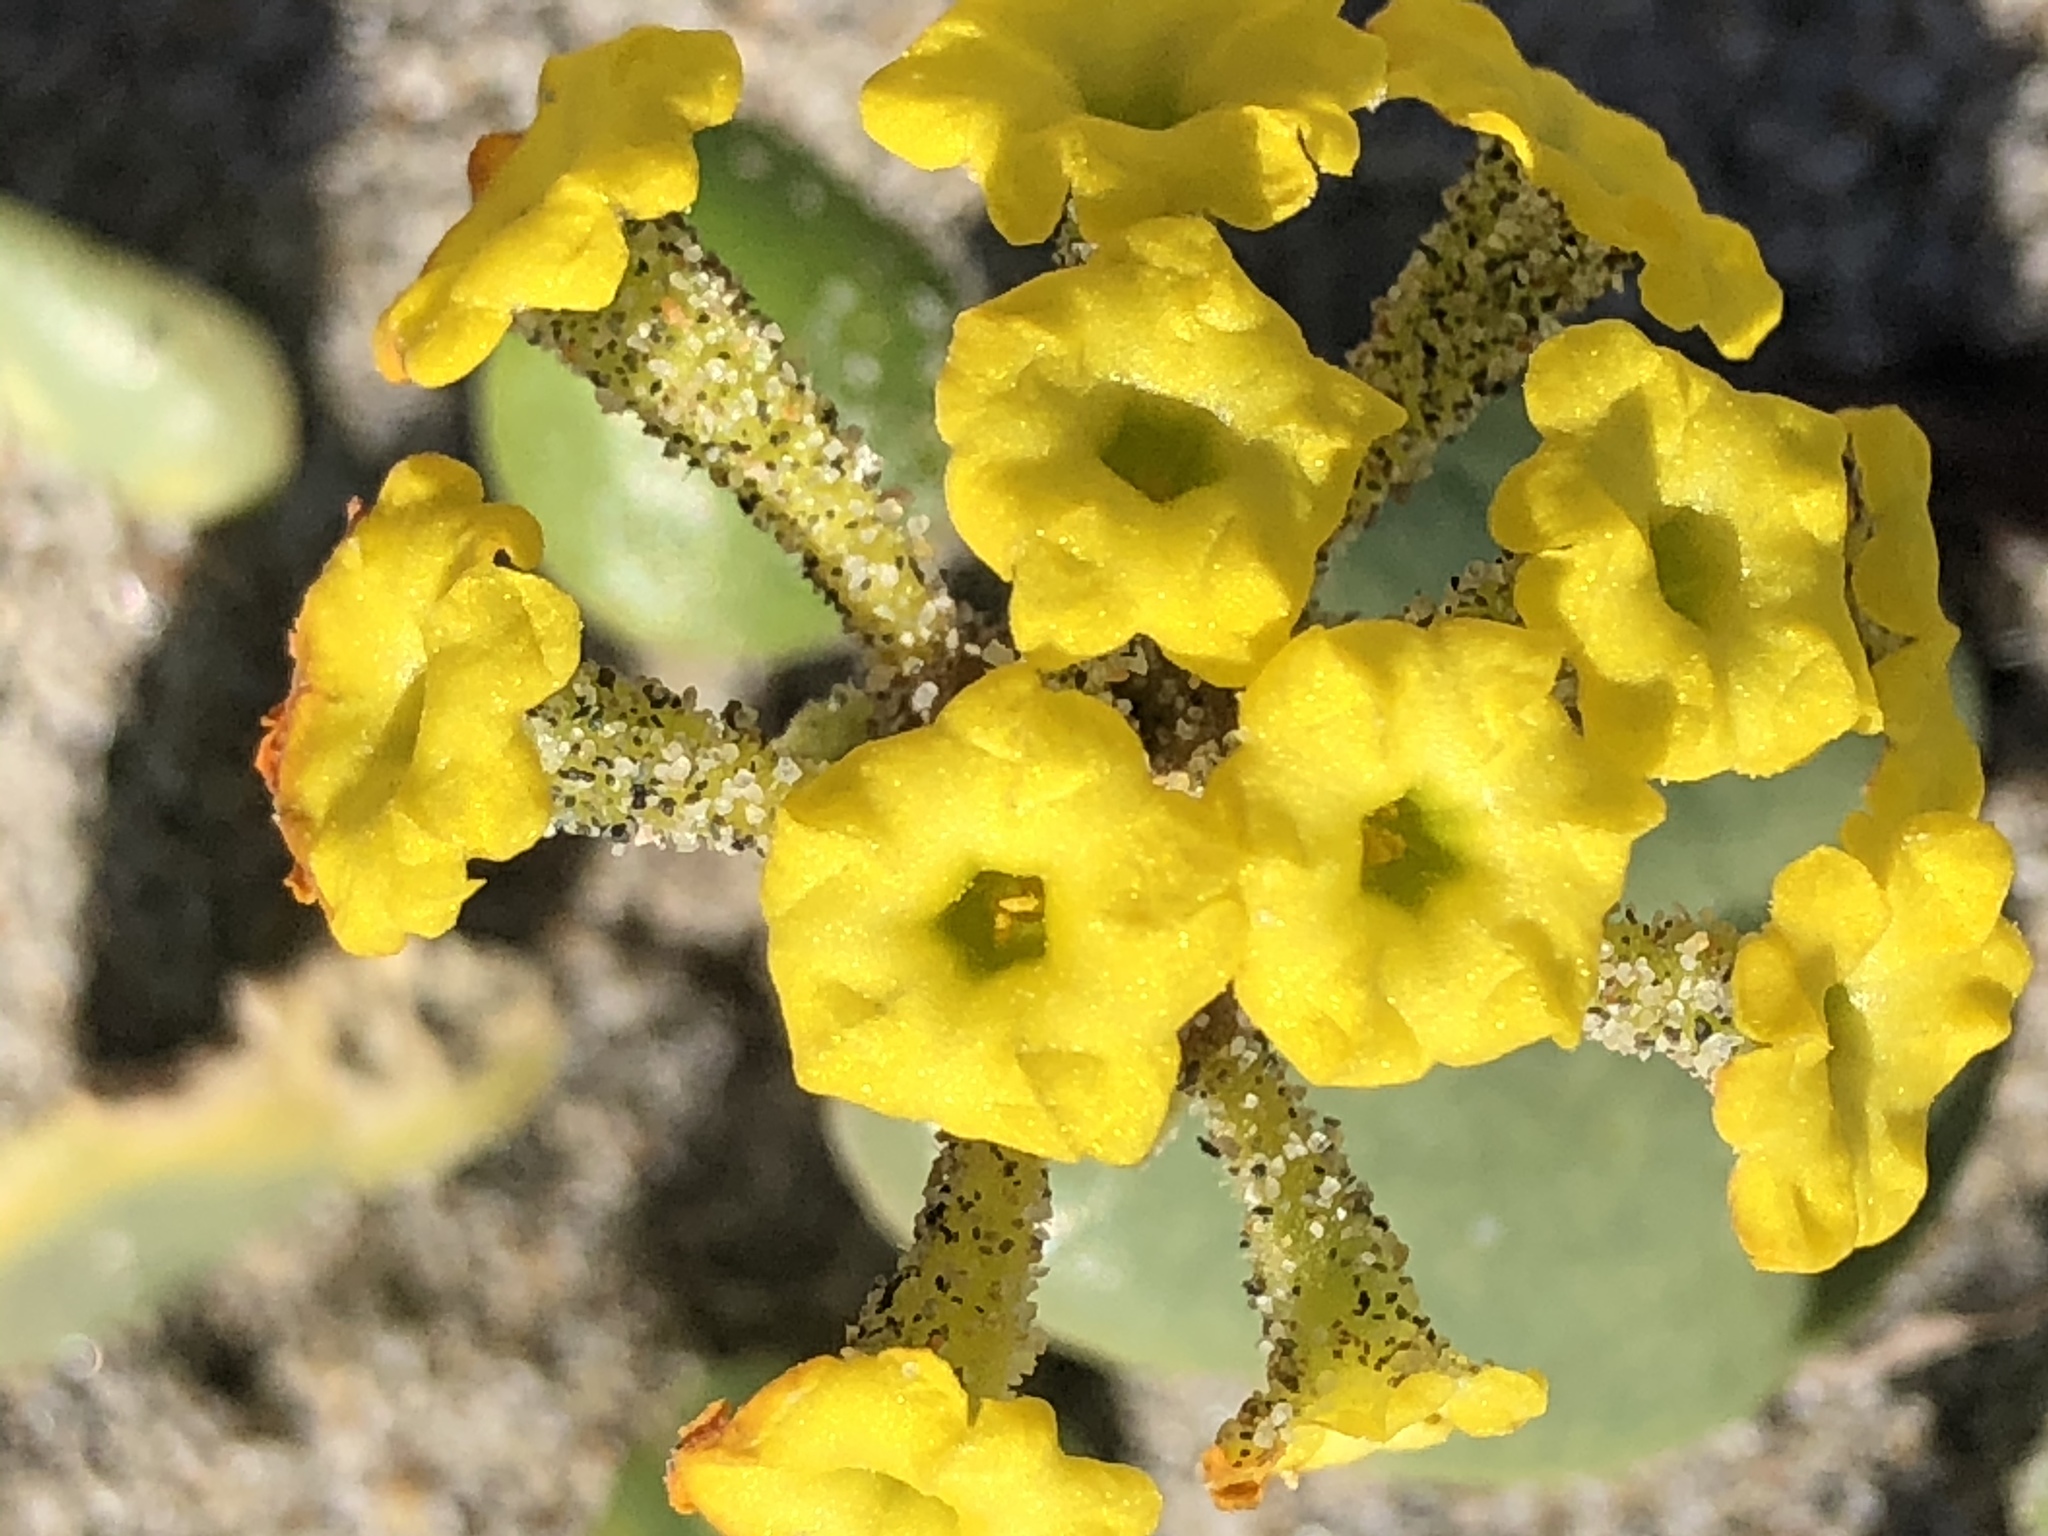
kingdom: Plantae
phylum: Tracheophyta
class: Magnoliopsida
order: Caryophyllales
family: Nyctaginaceae
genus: Abronia
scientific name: Abronia latifolia
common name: Yellow sand-verbena
